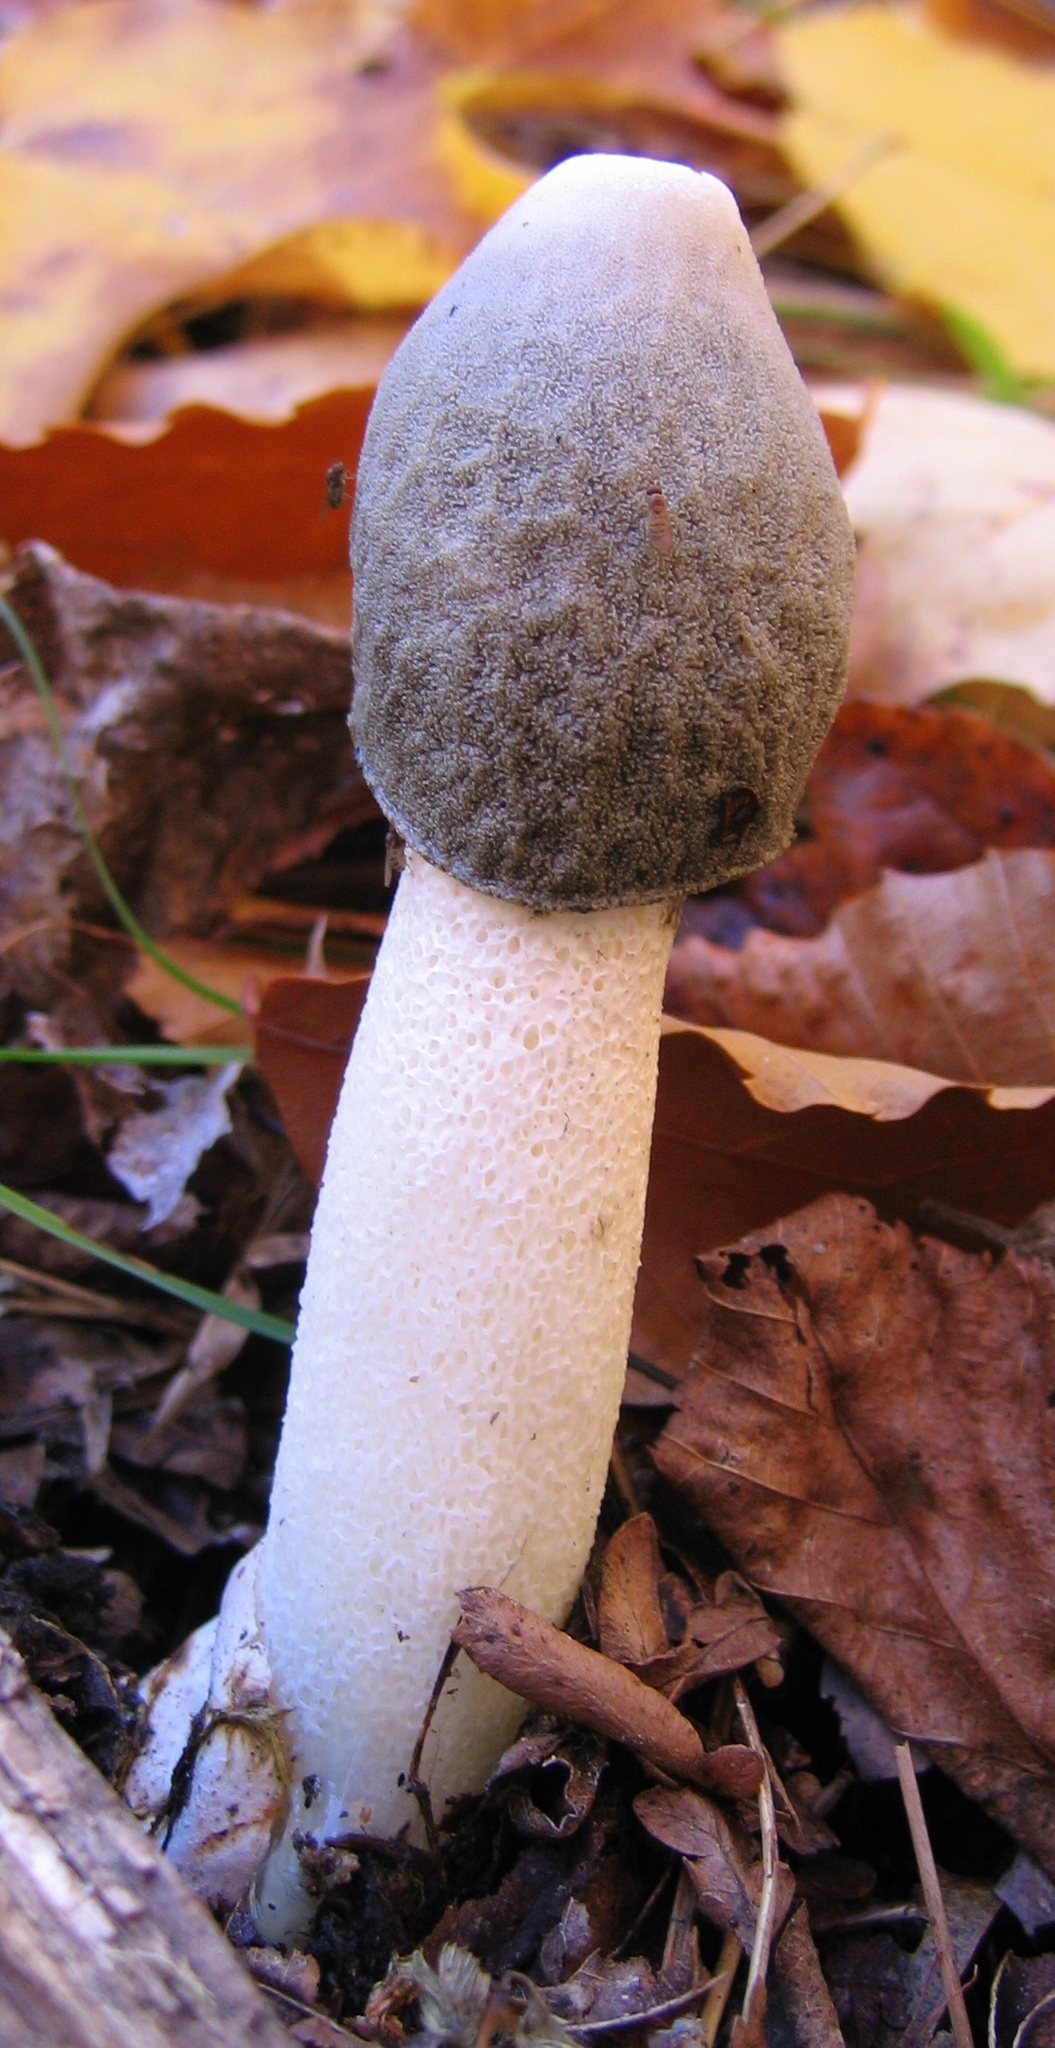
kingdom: Fungi
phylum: Basidiomycota
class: Agaricomycetes
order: Phallales
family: Phallaceae
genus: Phallus
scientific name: Phallus ravenelii
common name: Ravenel's stinkhorn
